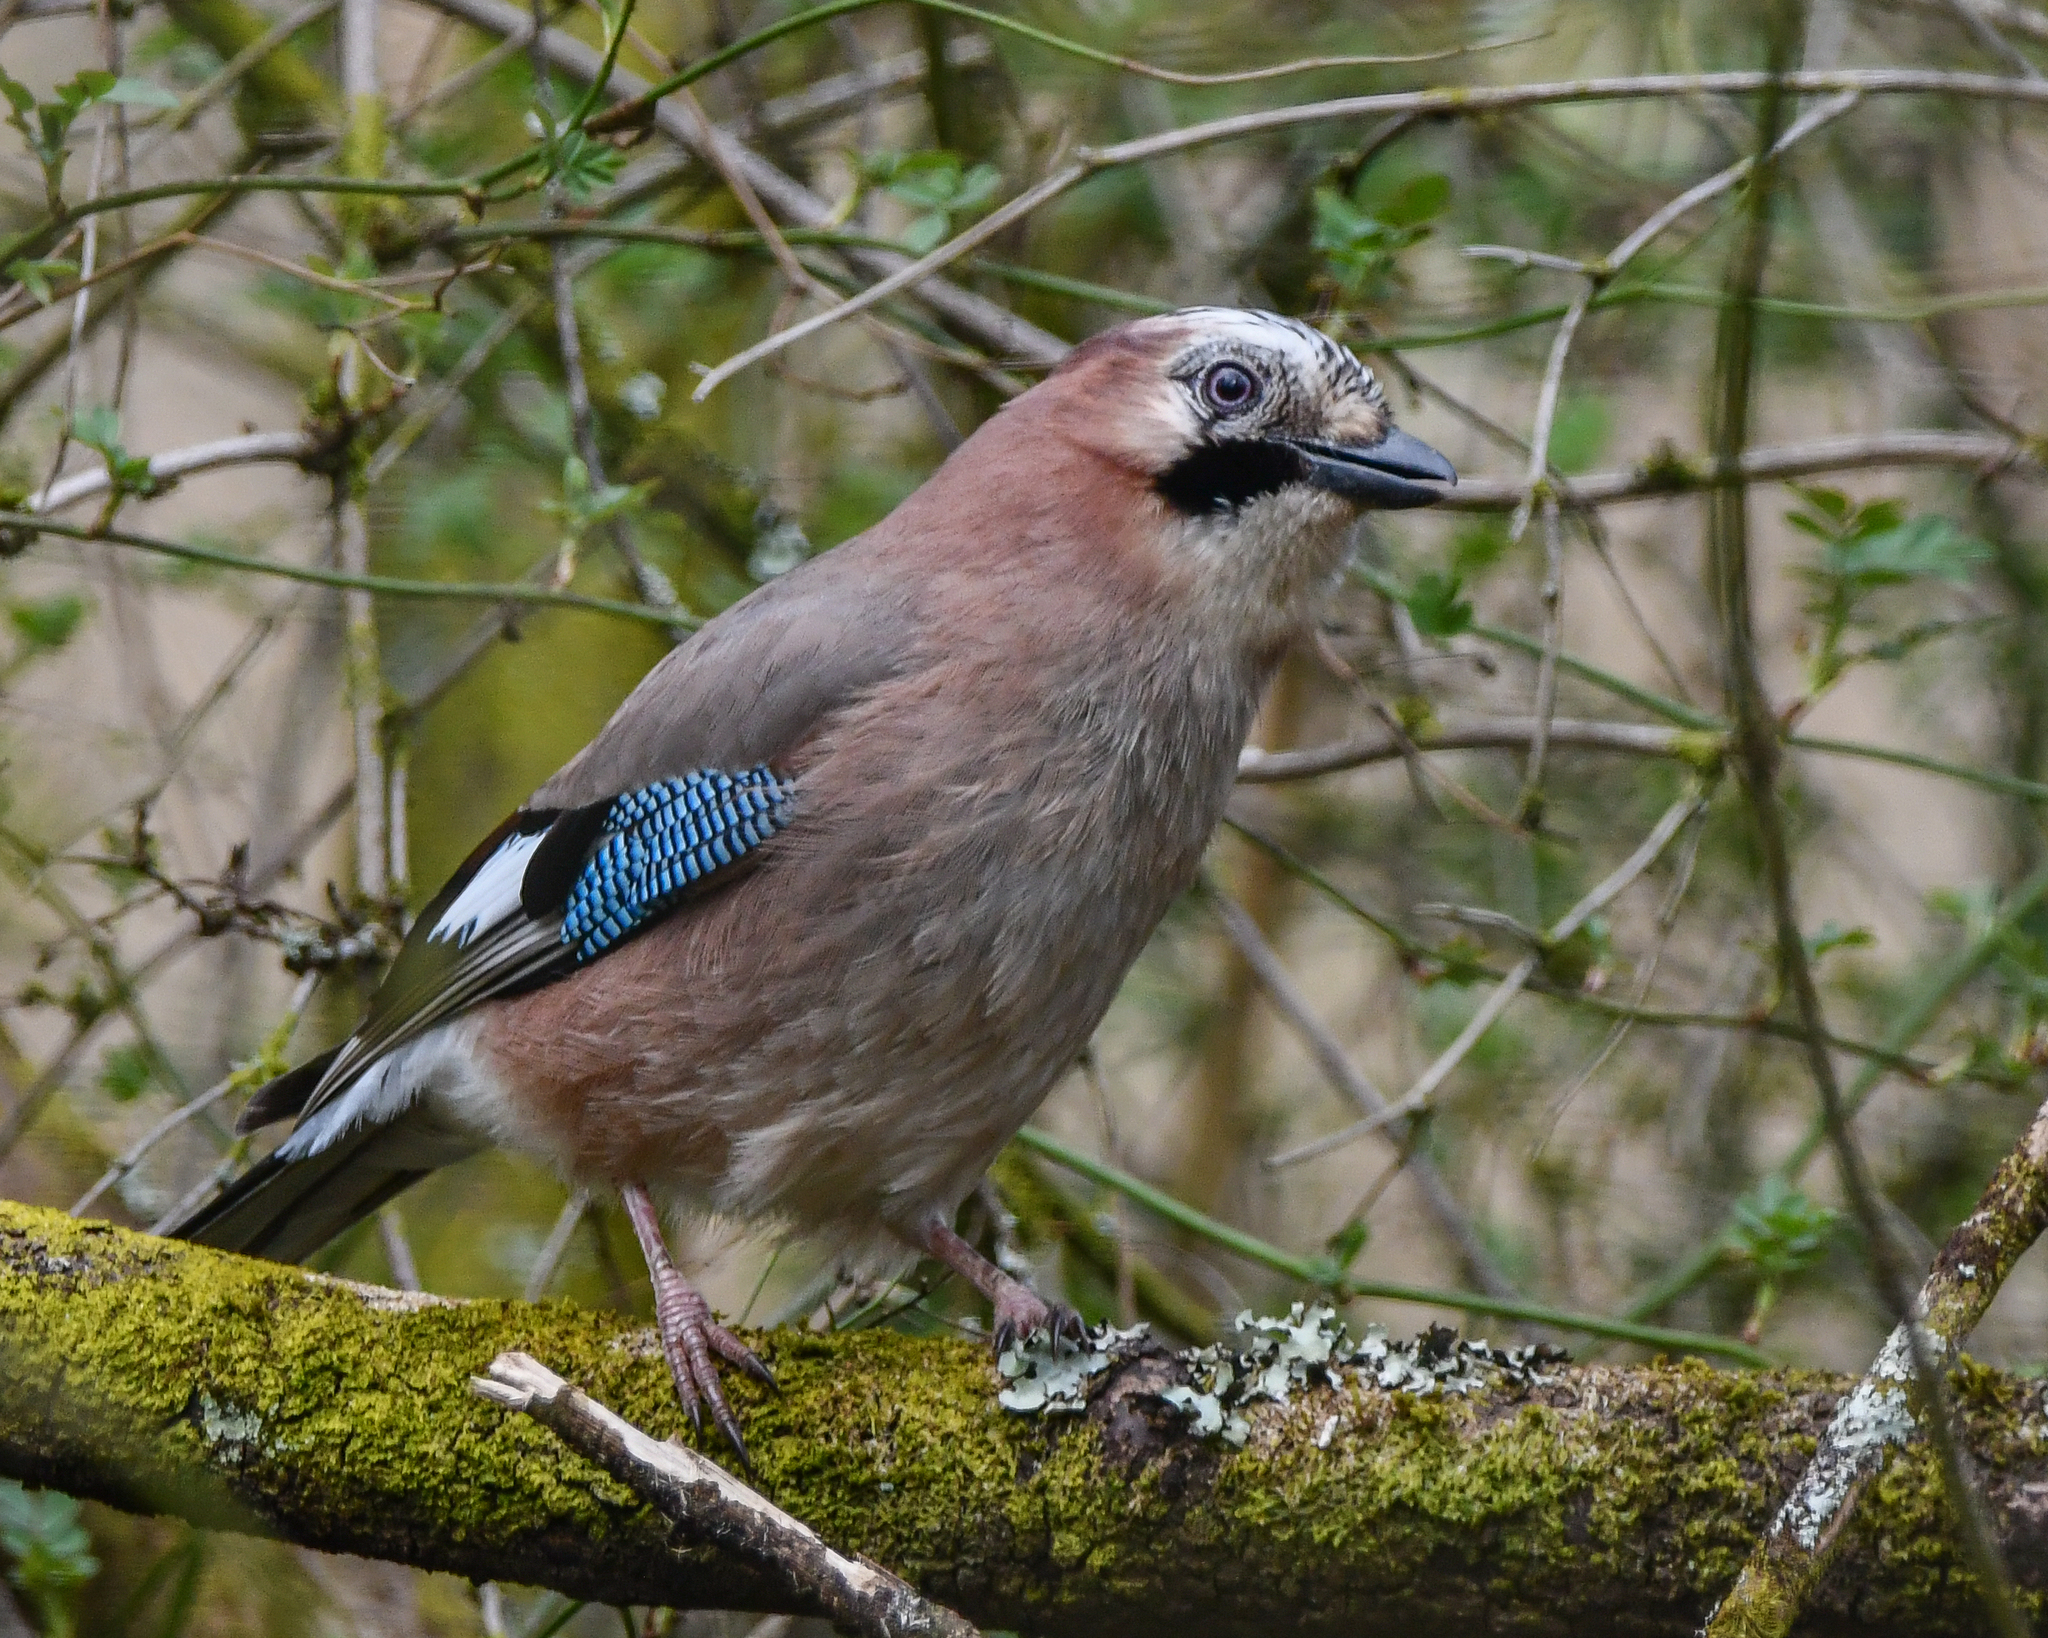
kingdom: Animalia
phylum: Chordata
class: Aves
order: Passeriformes
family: Corvidae
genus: Garrulus
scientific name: Garrulus glandarius
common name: Eurasian jay
